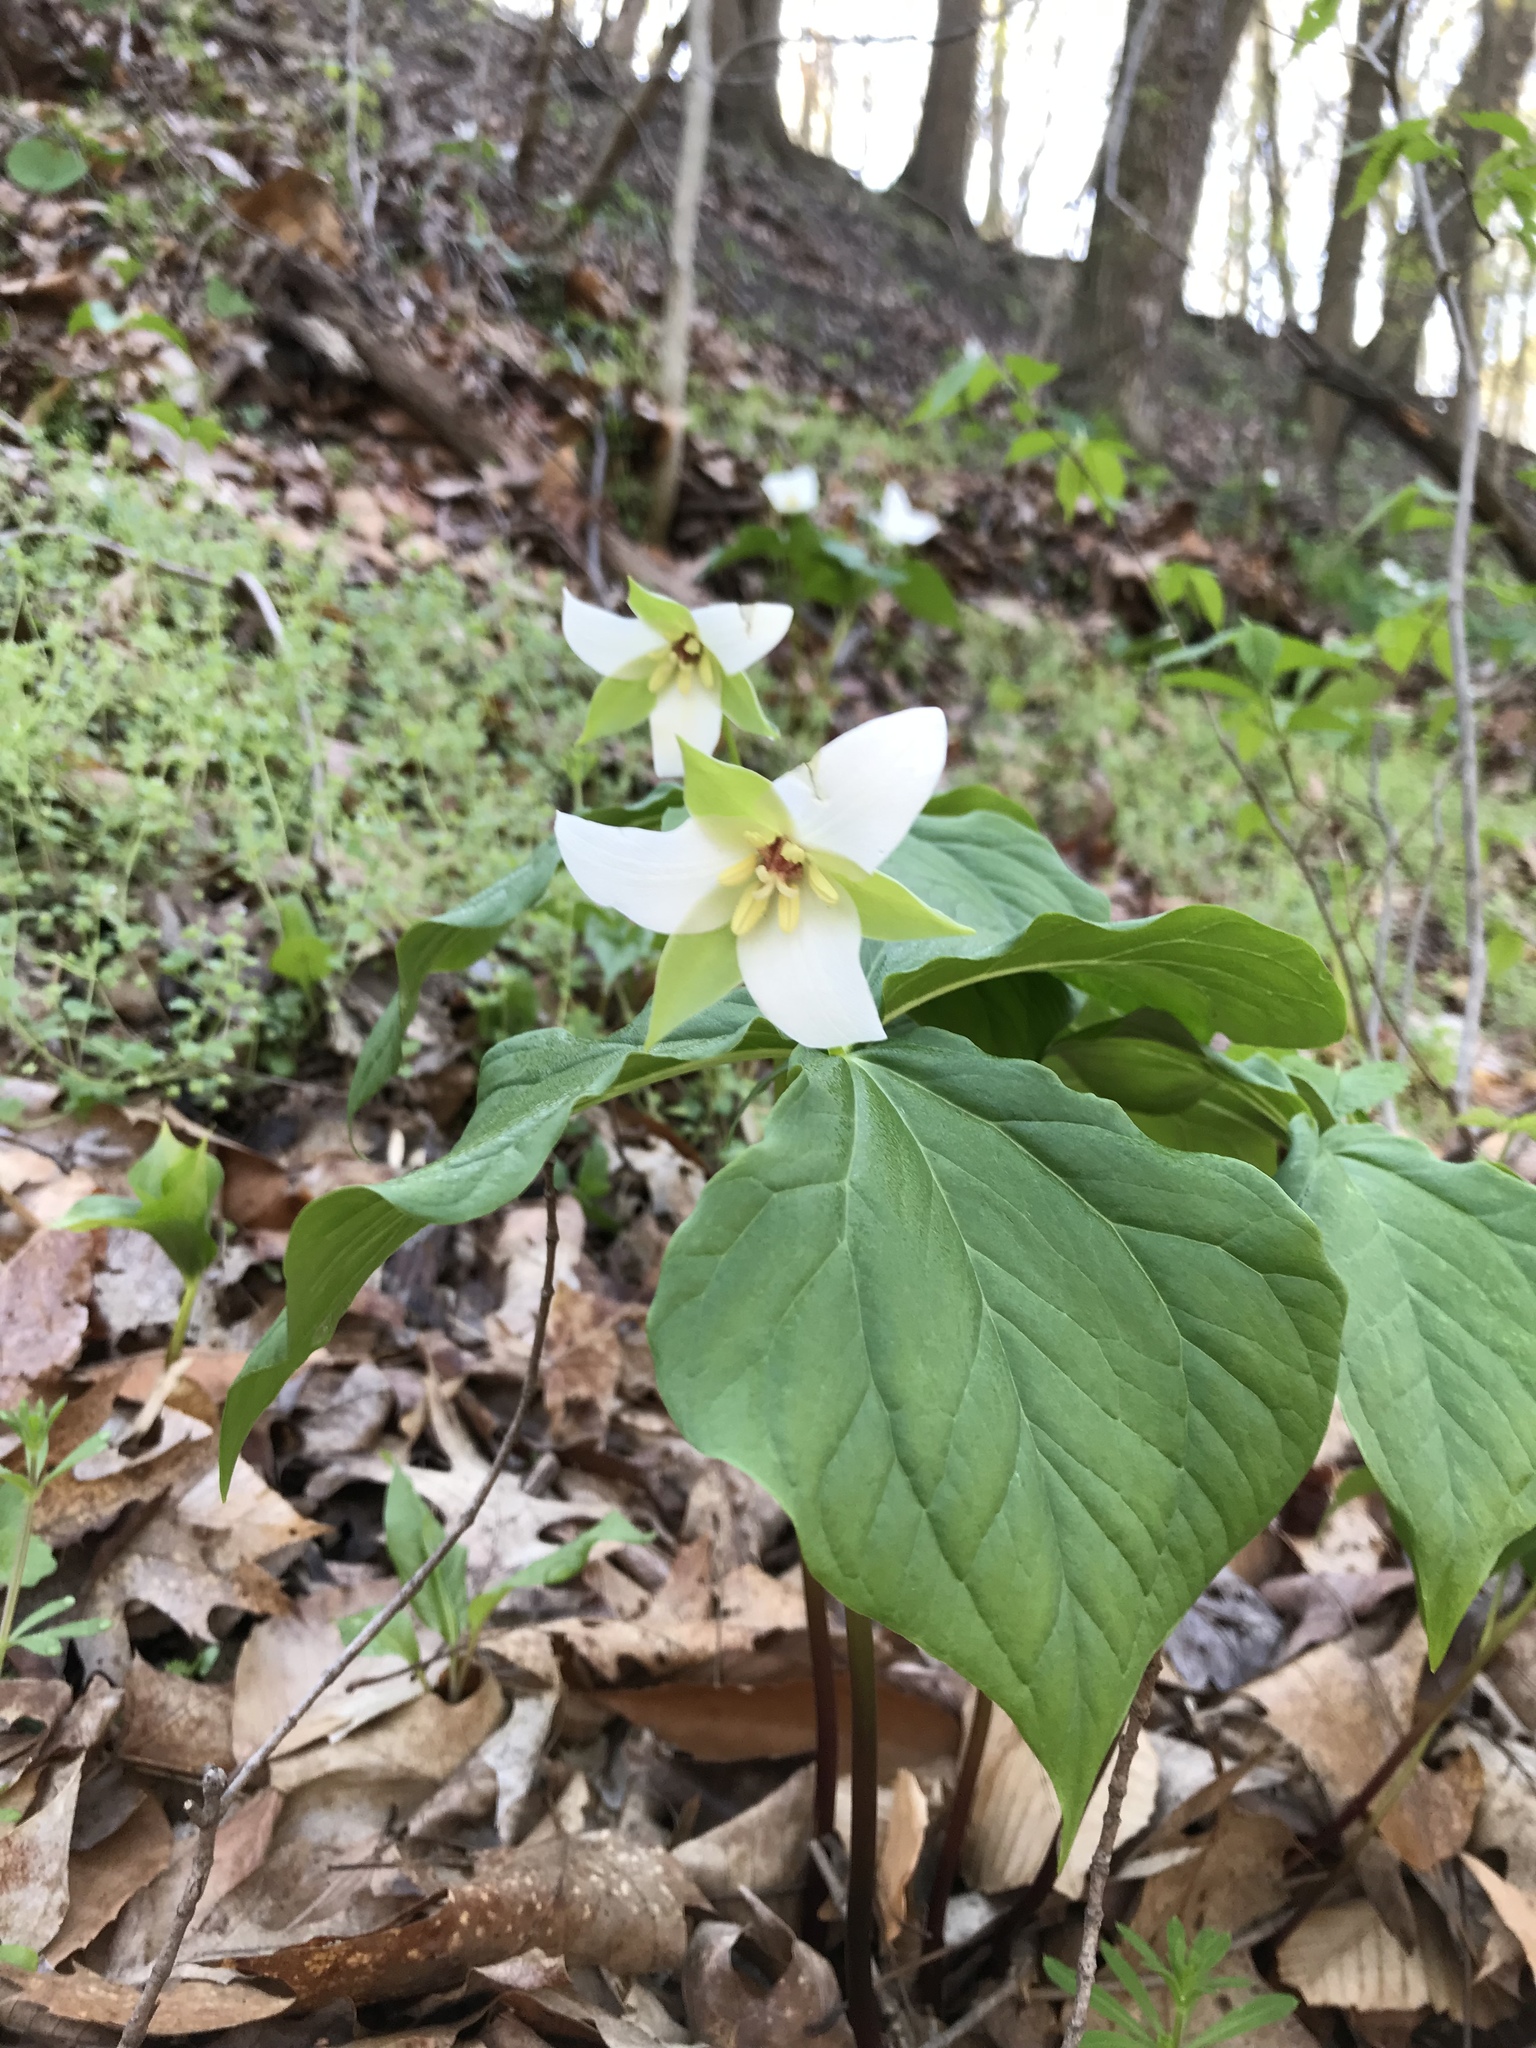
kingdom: Plantae
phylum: Tracheophyta
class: Liliopsida
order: Liliales
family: Melanthiaceae
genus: Trillium
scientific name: Trillium erectum
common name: Purple trillium
